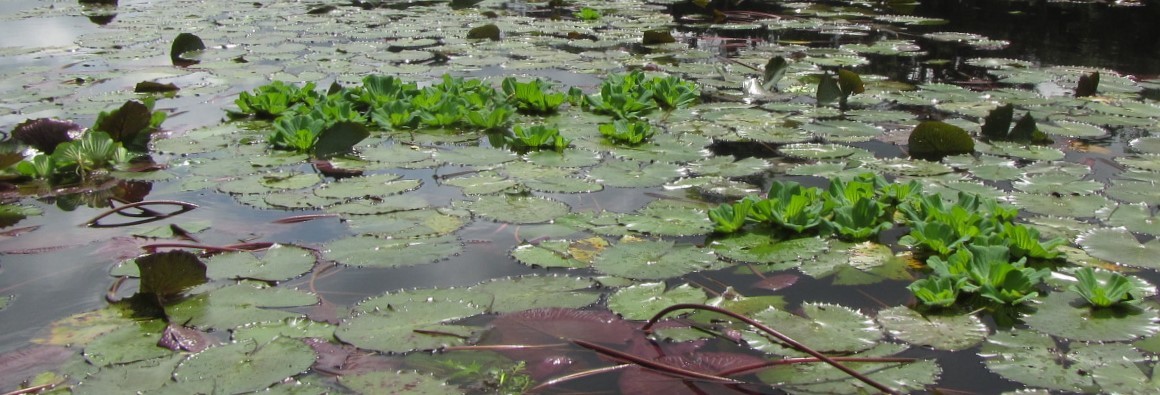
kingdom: Plantae
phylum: Tracheophyta
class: Liliopsida
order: Alismatales
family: Araceae
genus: Pistia
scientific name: Pistia stratiotes
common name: Water lettuce
